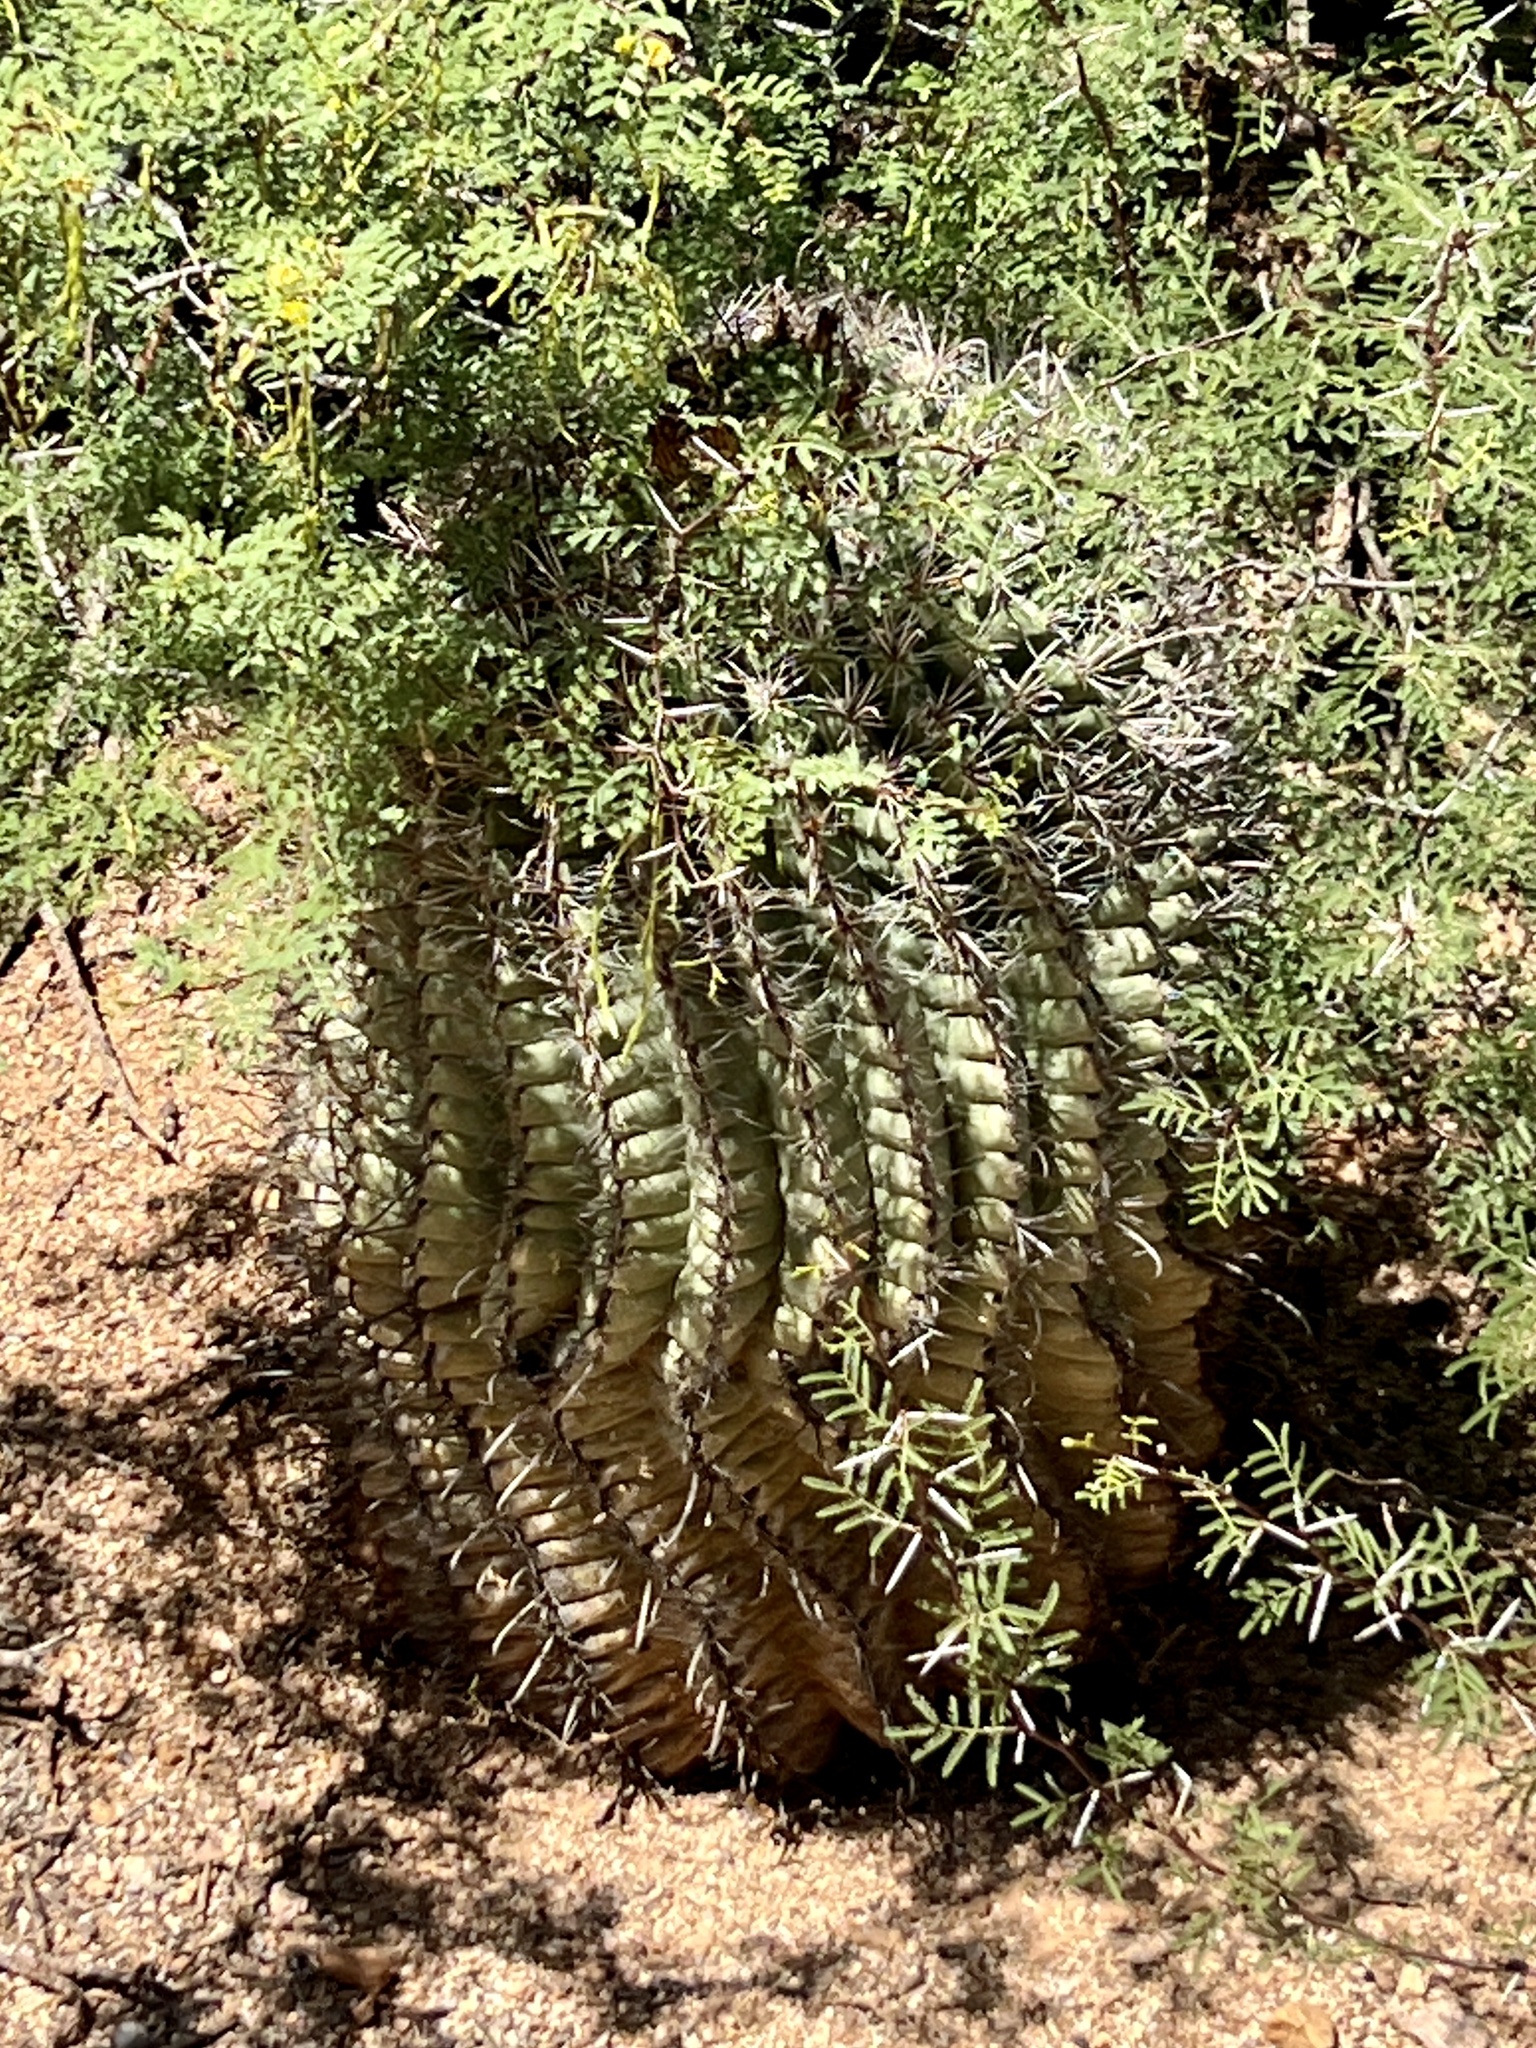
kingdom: Plantae
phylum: Tracheophyta
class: Magnoliopsida
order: Caryophyllales
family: Cactaceae
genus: Ferocactus
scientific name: Ferocactus wislizeni
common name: Candy barrel cactus
